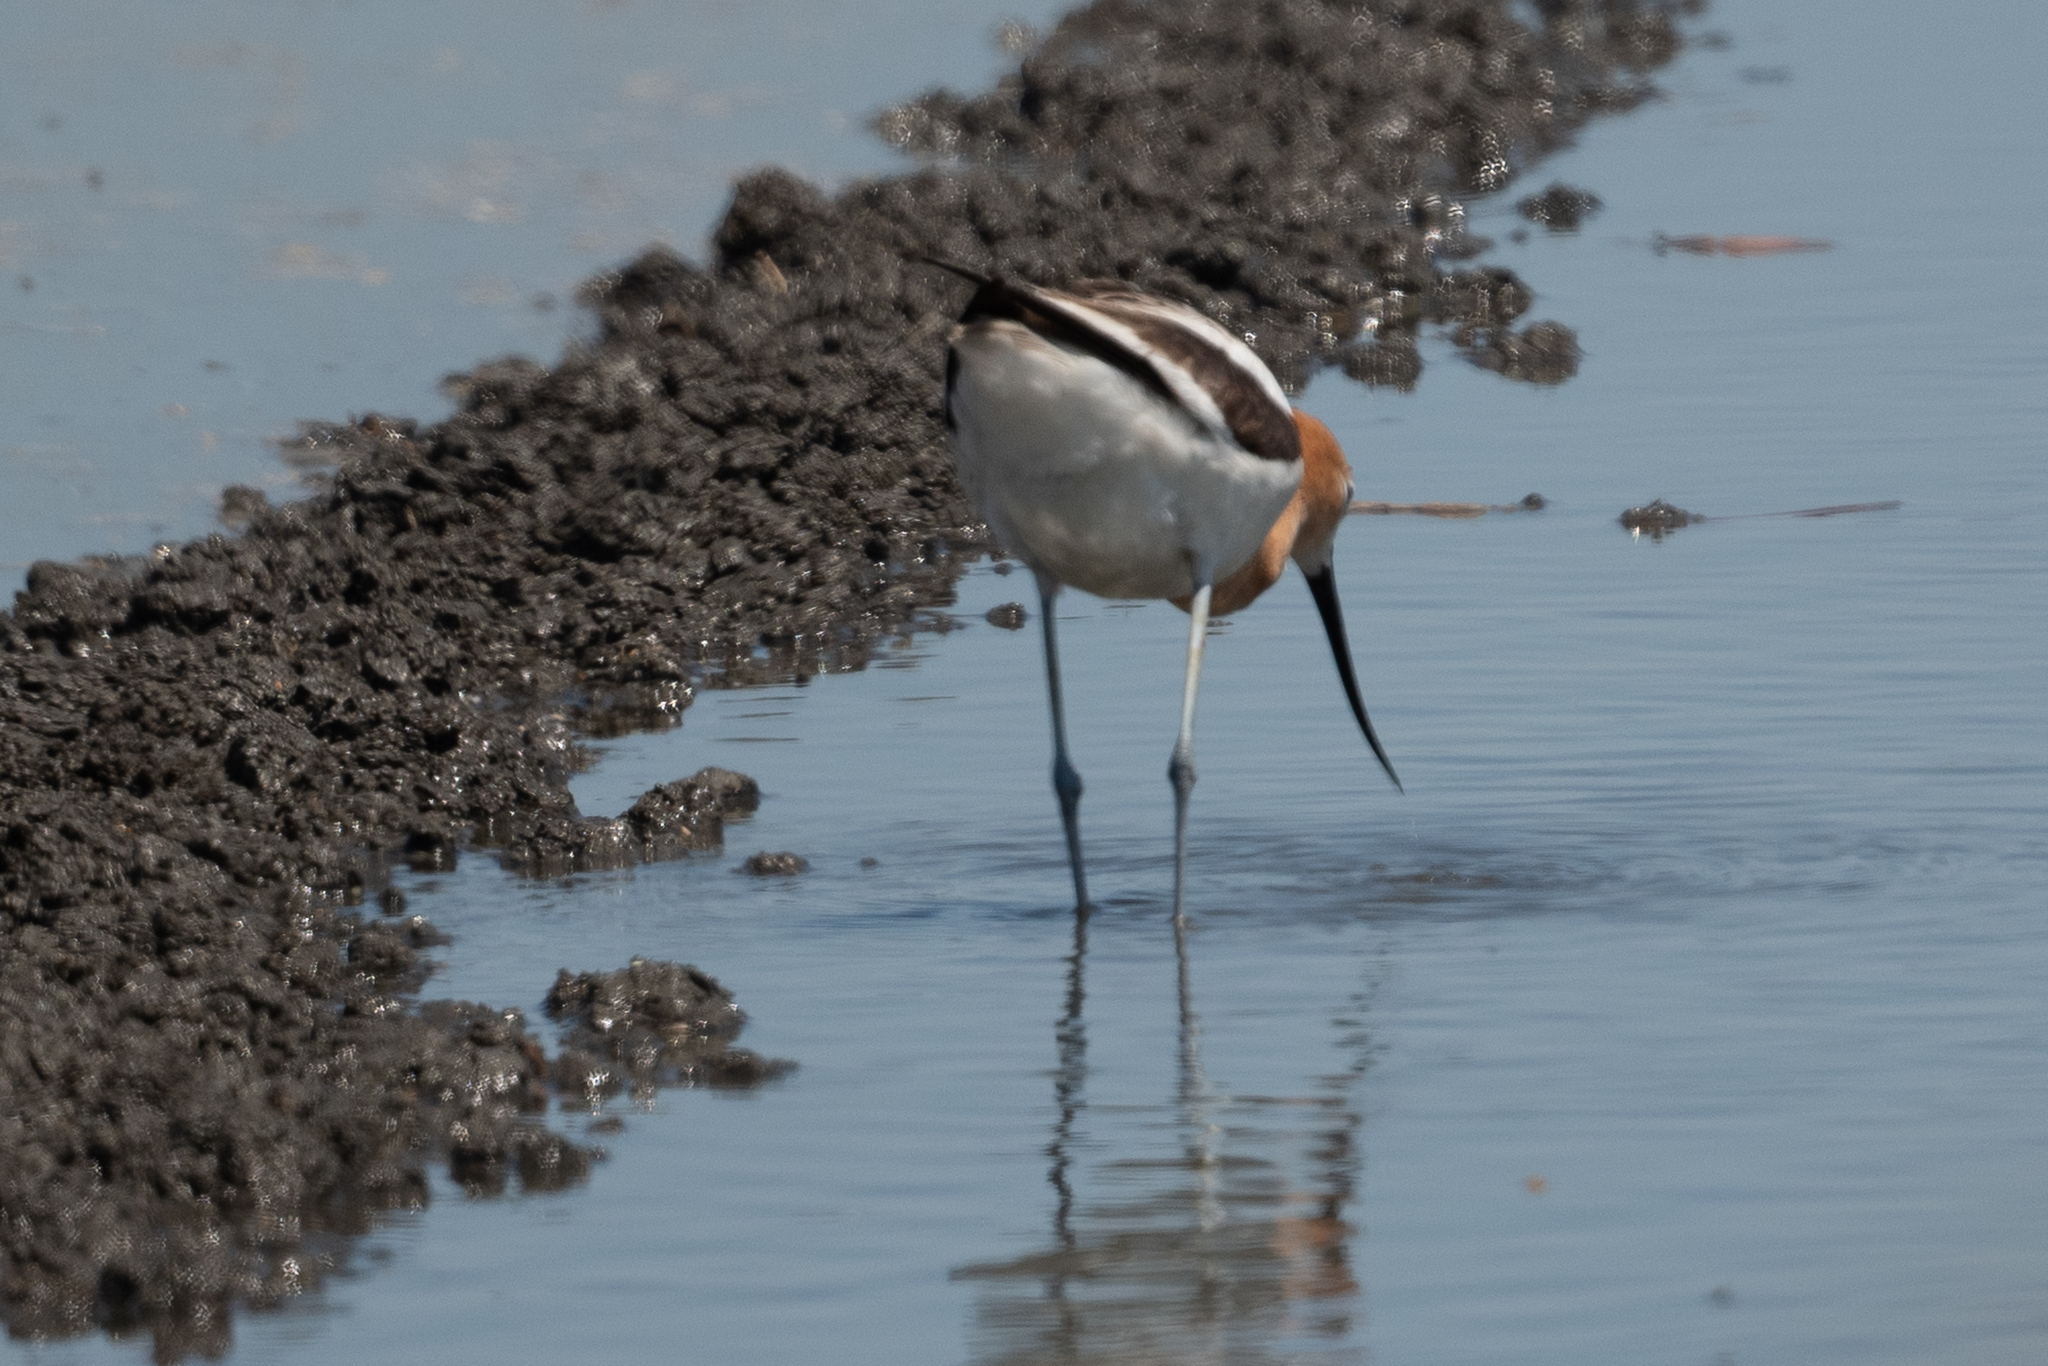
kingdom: Animalia
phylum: Chordata
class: Aves
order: Charadriiformes
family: Recurvirostridae
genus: Recurvirostra
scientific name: Recurvirostra americana
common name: American avocet
